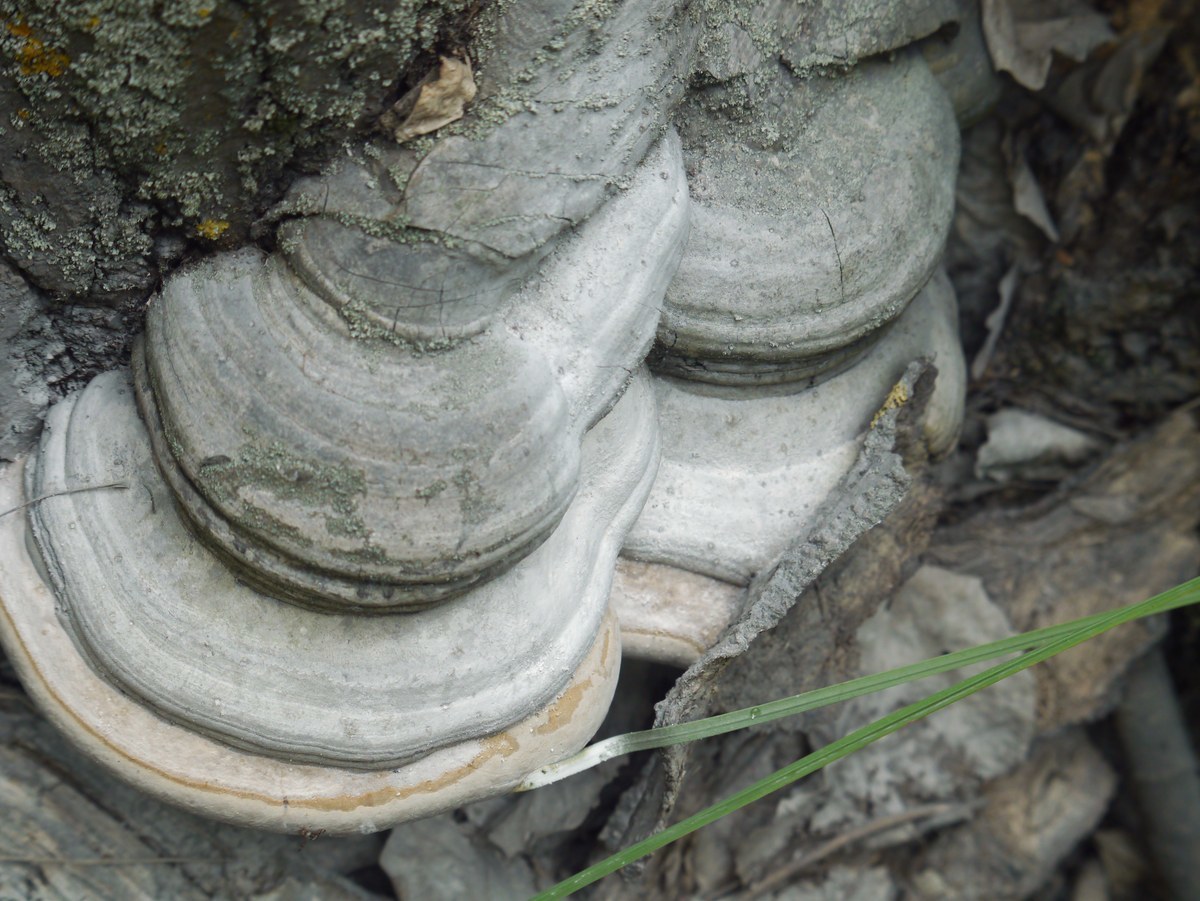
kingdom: Fungi
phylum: Basidiomycota
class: Agaricomycetes
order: Polyporales
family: Polyporaceae
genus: Fomes
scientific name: Fomes fomentarius
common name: Hoof fungus
